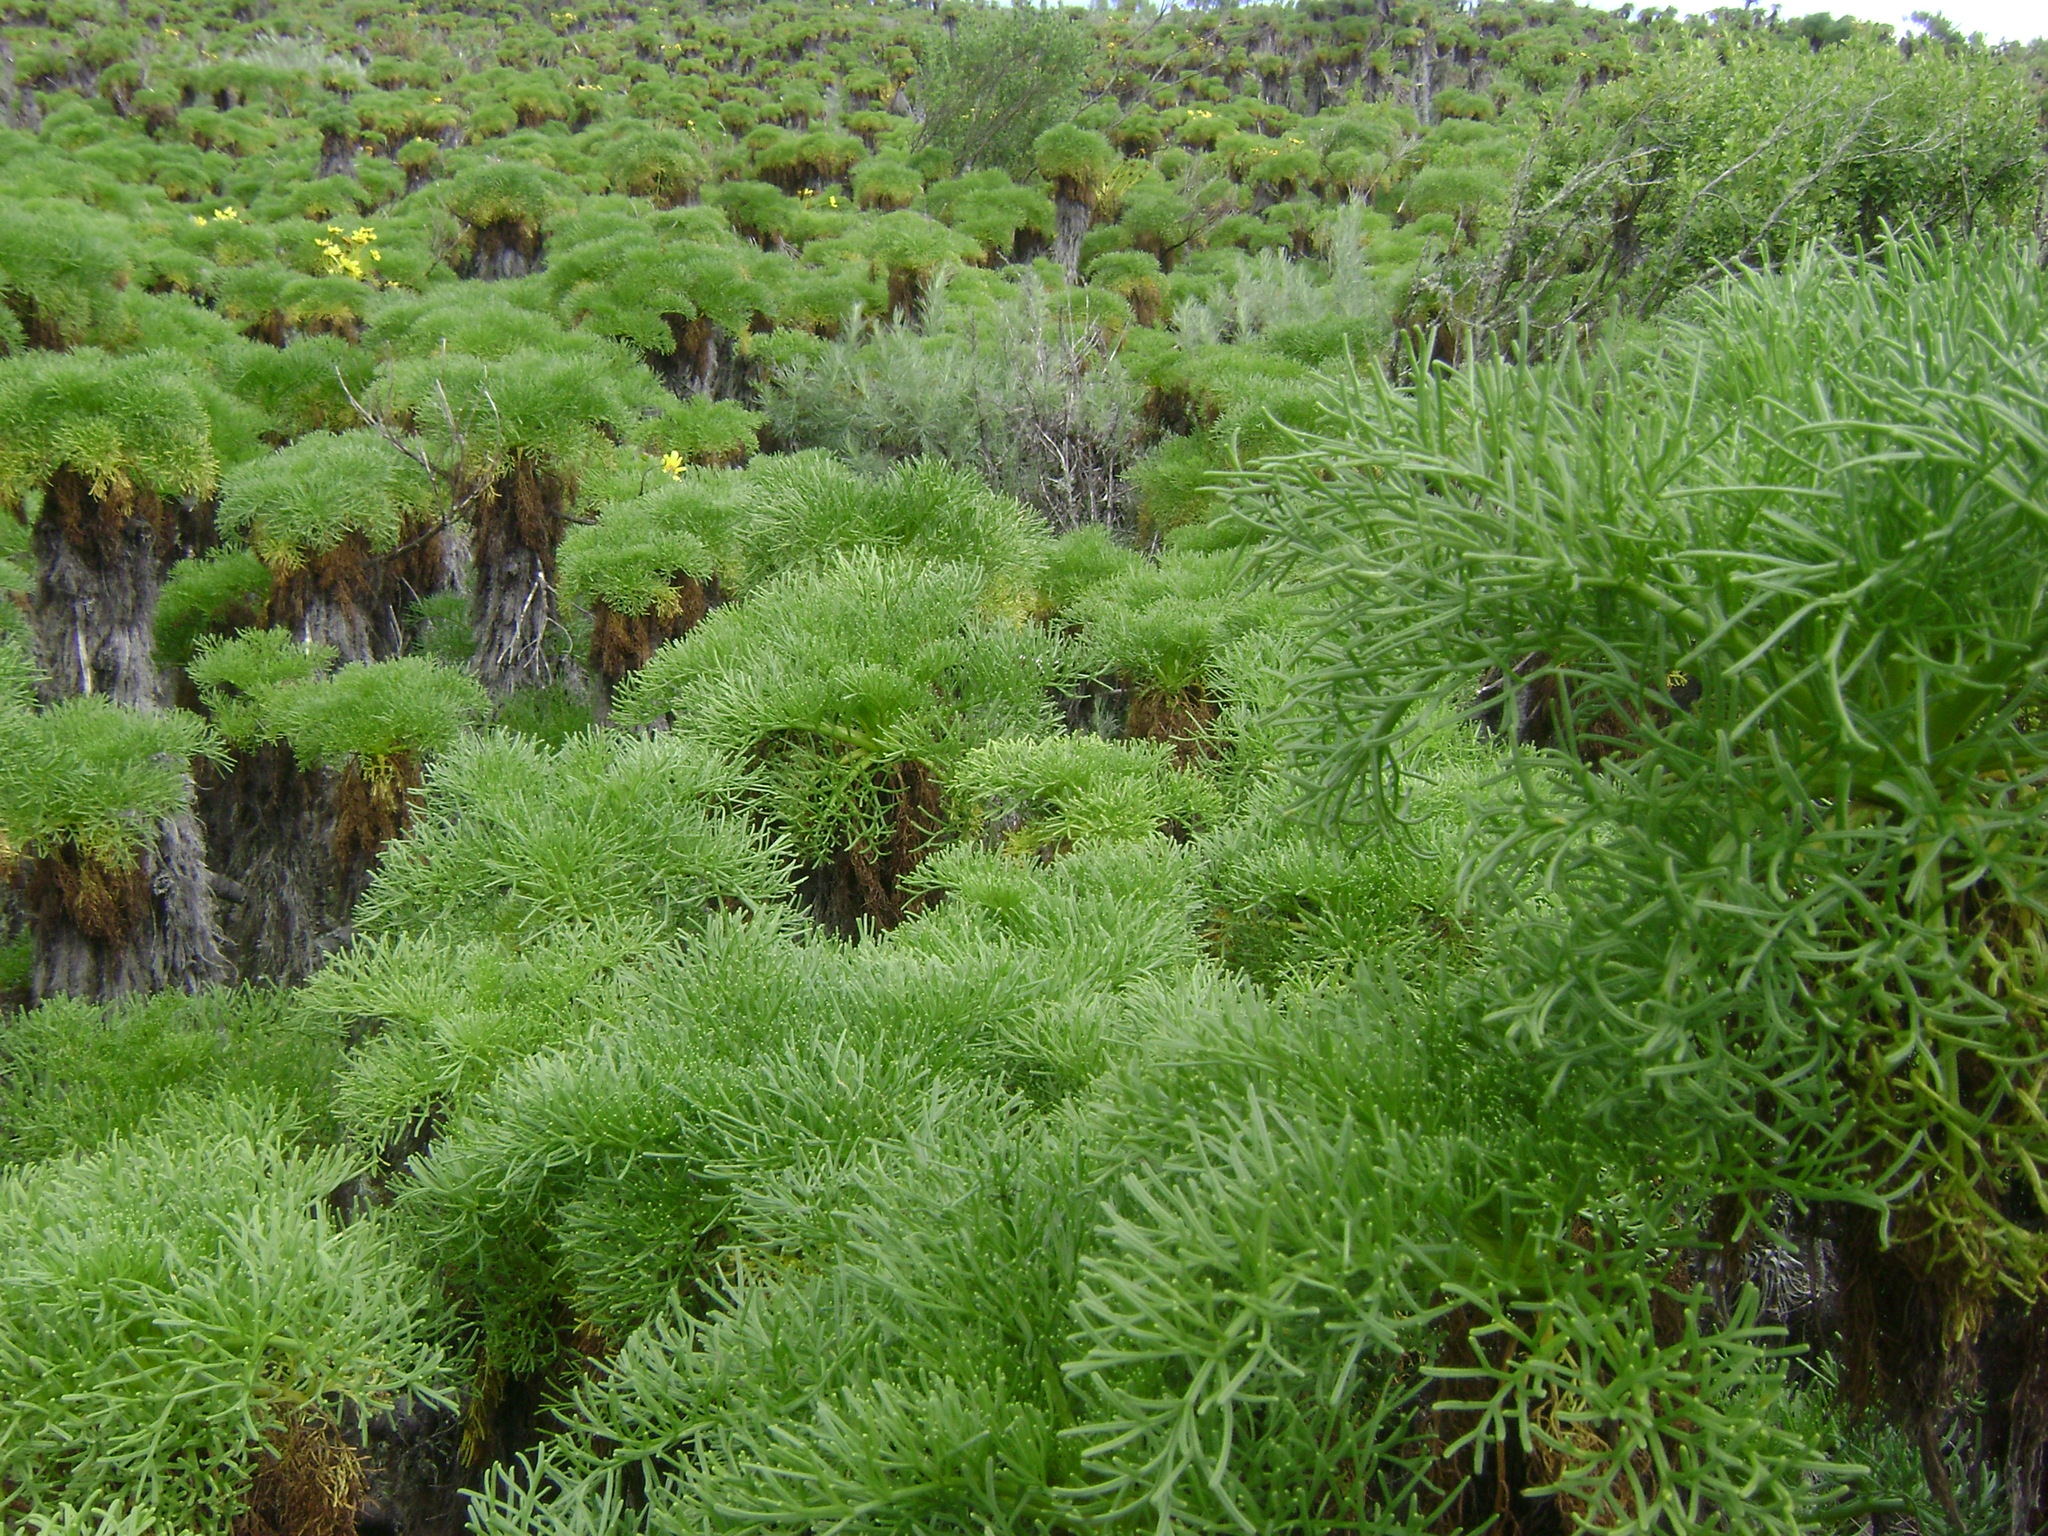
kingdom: Plantae
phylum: Tracheophyta
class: Magnoliopsida
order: Asterales
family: Asteraceae
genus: Coreopsis
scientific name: Coreopsis gigantea
